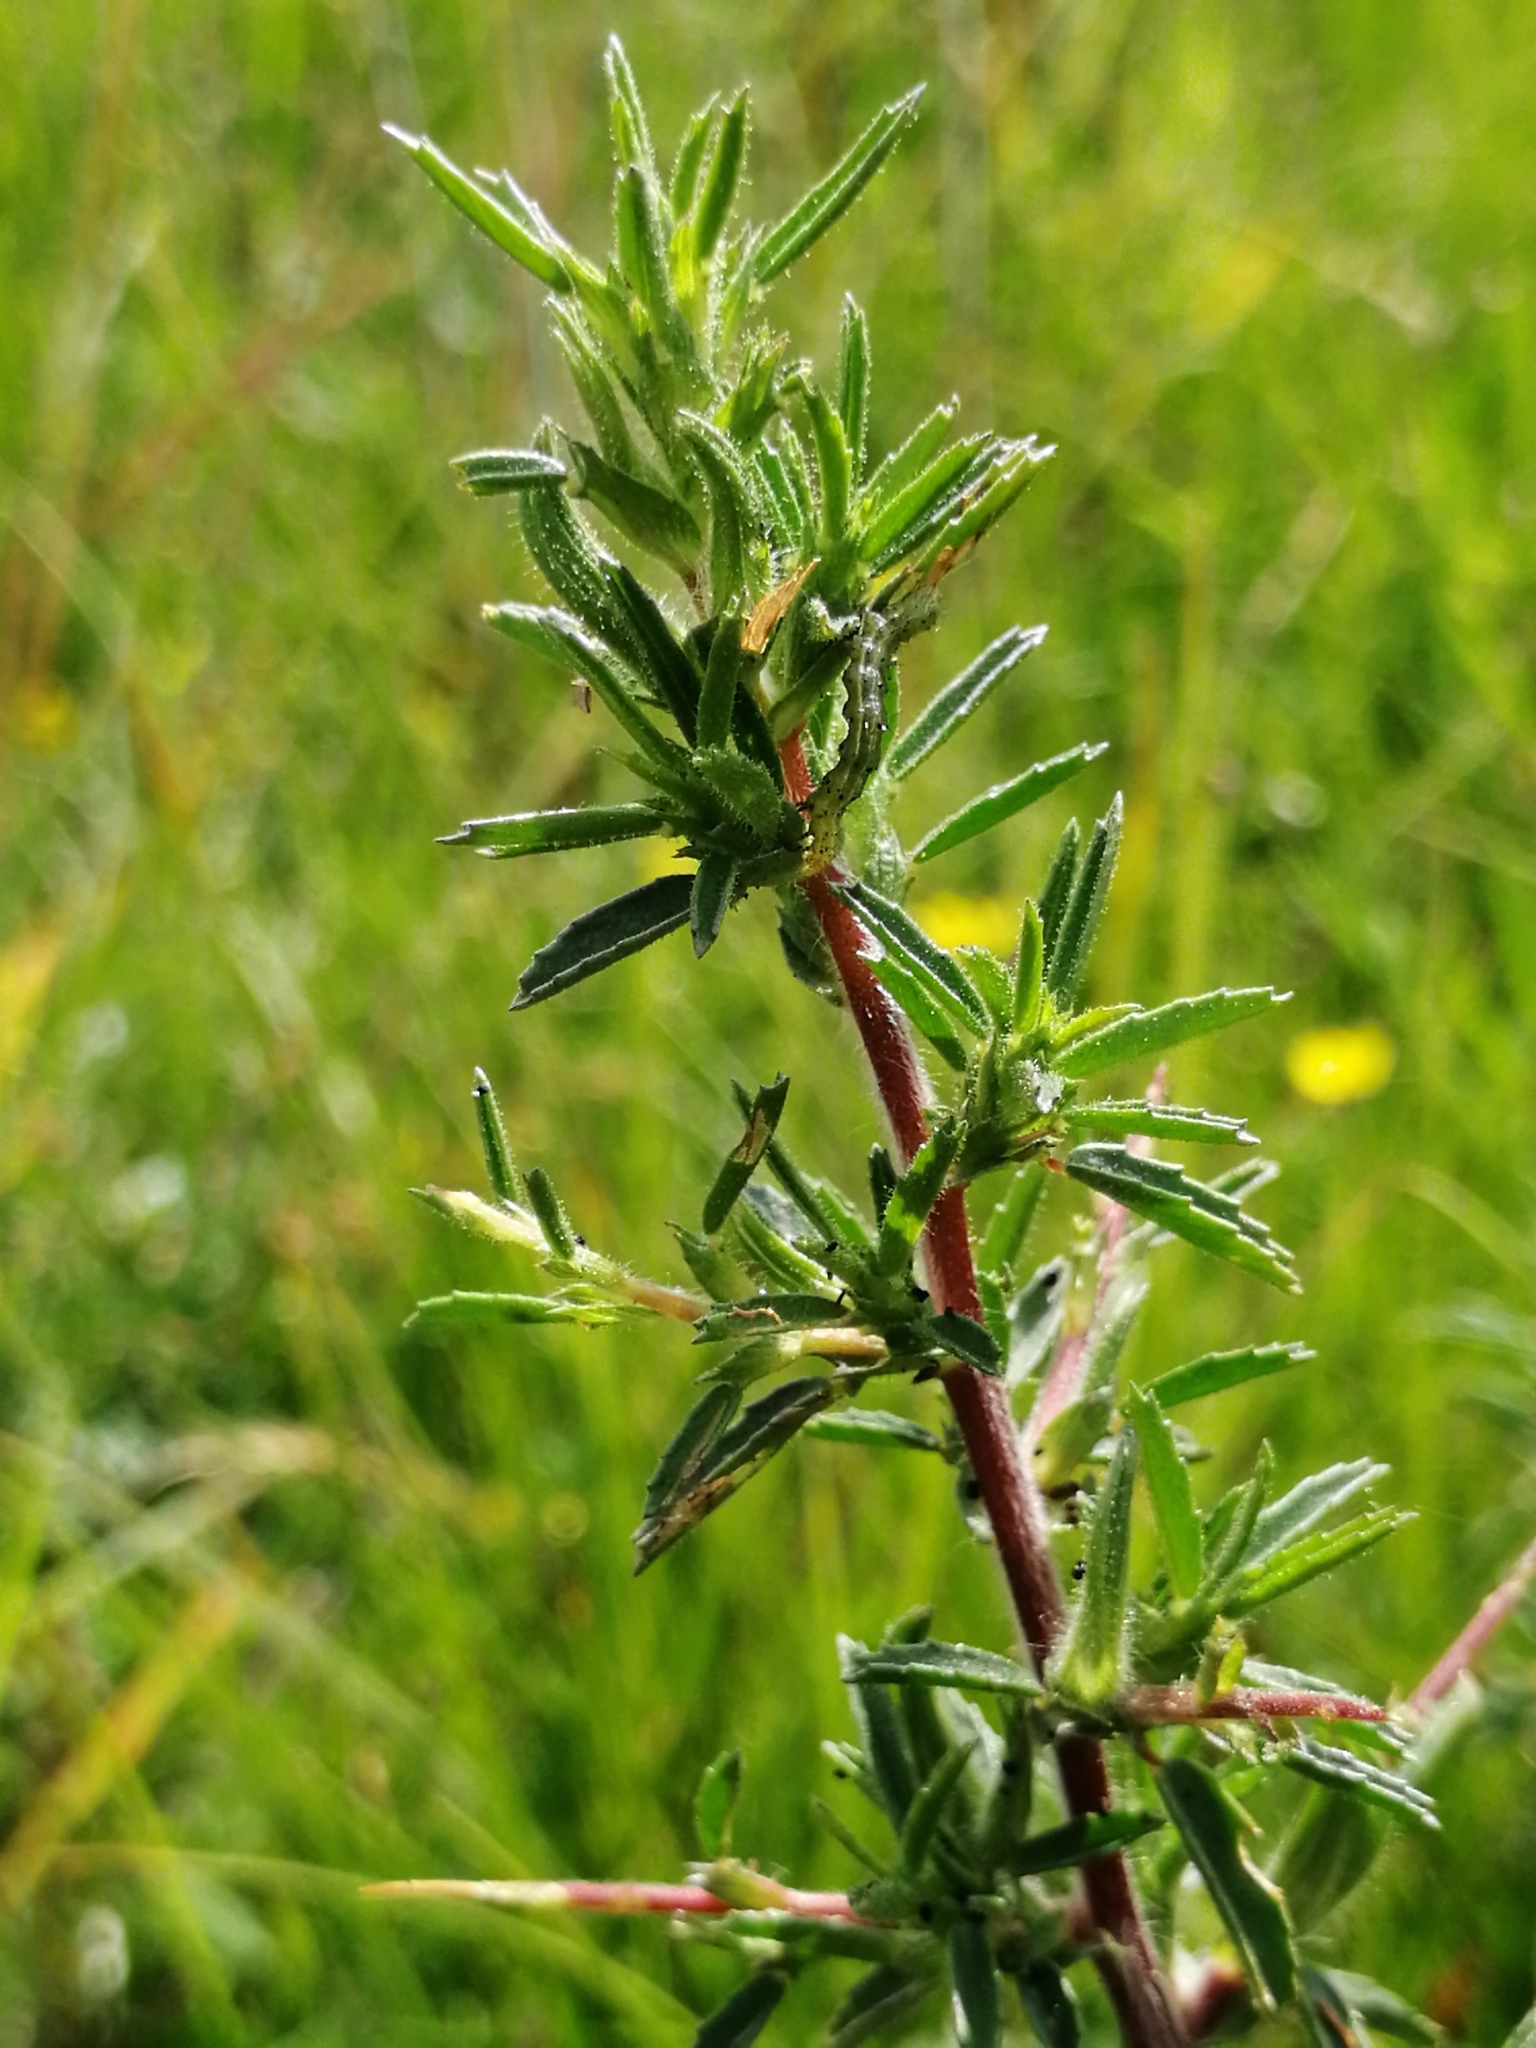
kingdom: Plantae
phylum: Tracheophyta
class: Magnoliopsida
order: Fabales
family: Fabaceae
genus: Ononis
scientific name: Ononis spinosa
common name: Spiny restharrow
